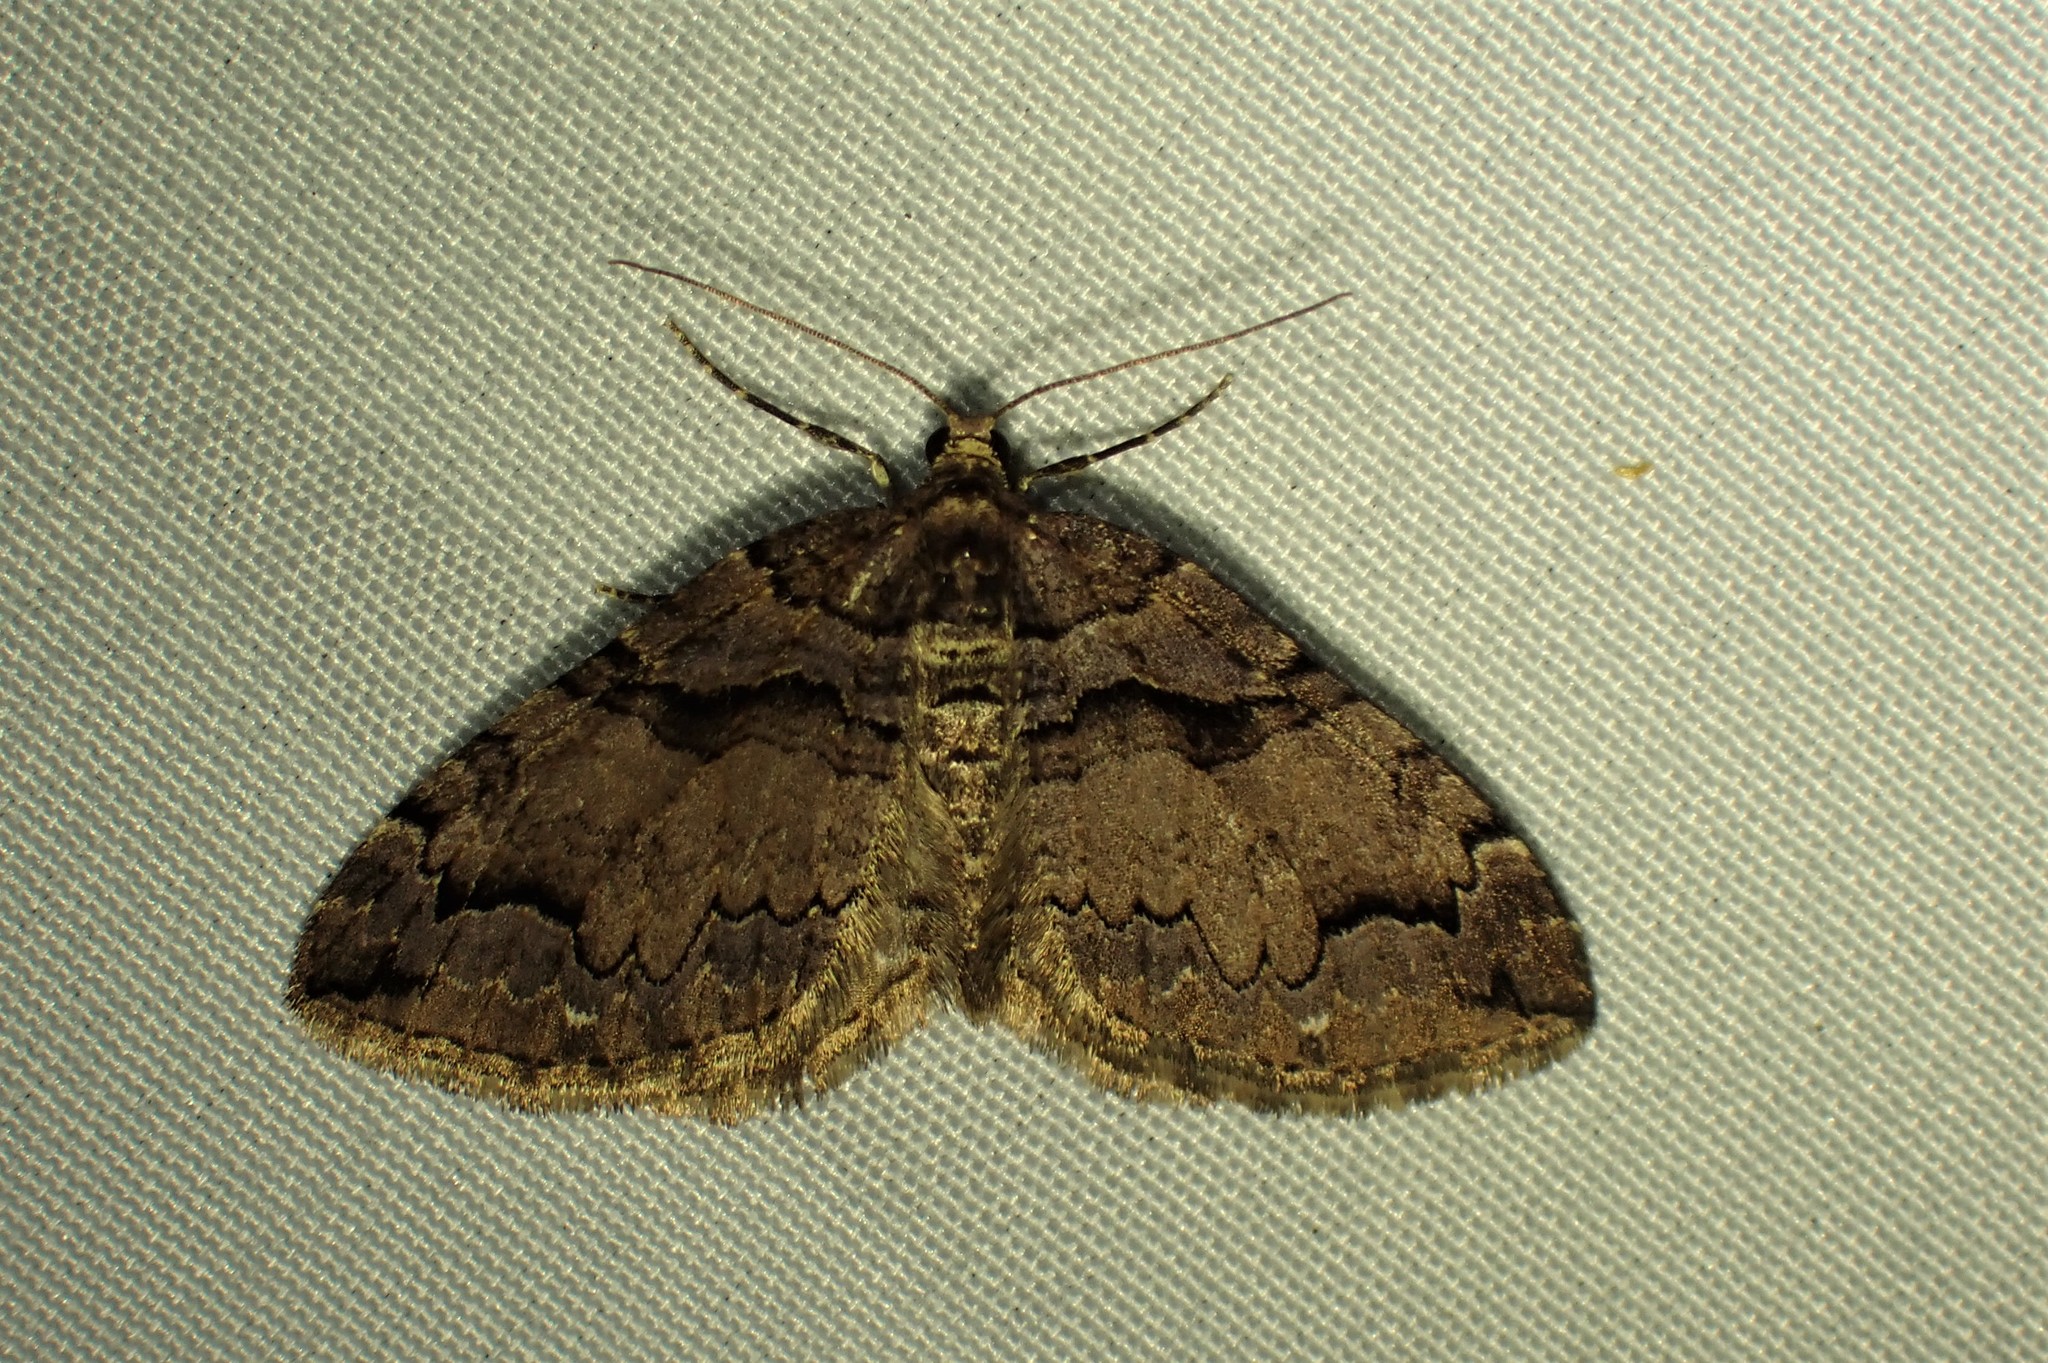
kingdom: Animalia
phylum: Arthropoda
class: Insecta
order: Lepidoptera
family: Geometridae
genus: Anticlea
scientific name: Anticlea vasiliata
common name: Variable carpet
